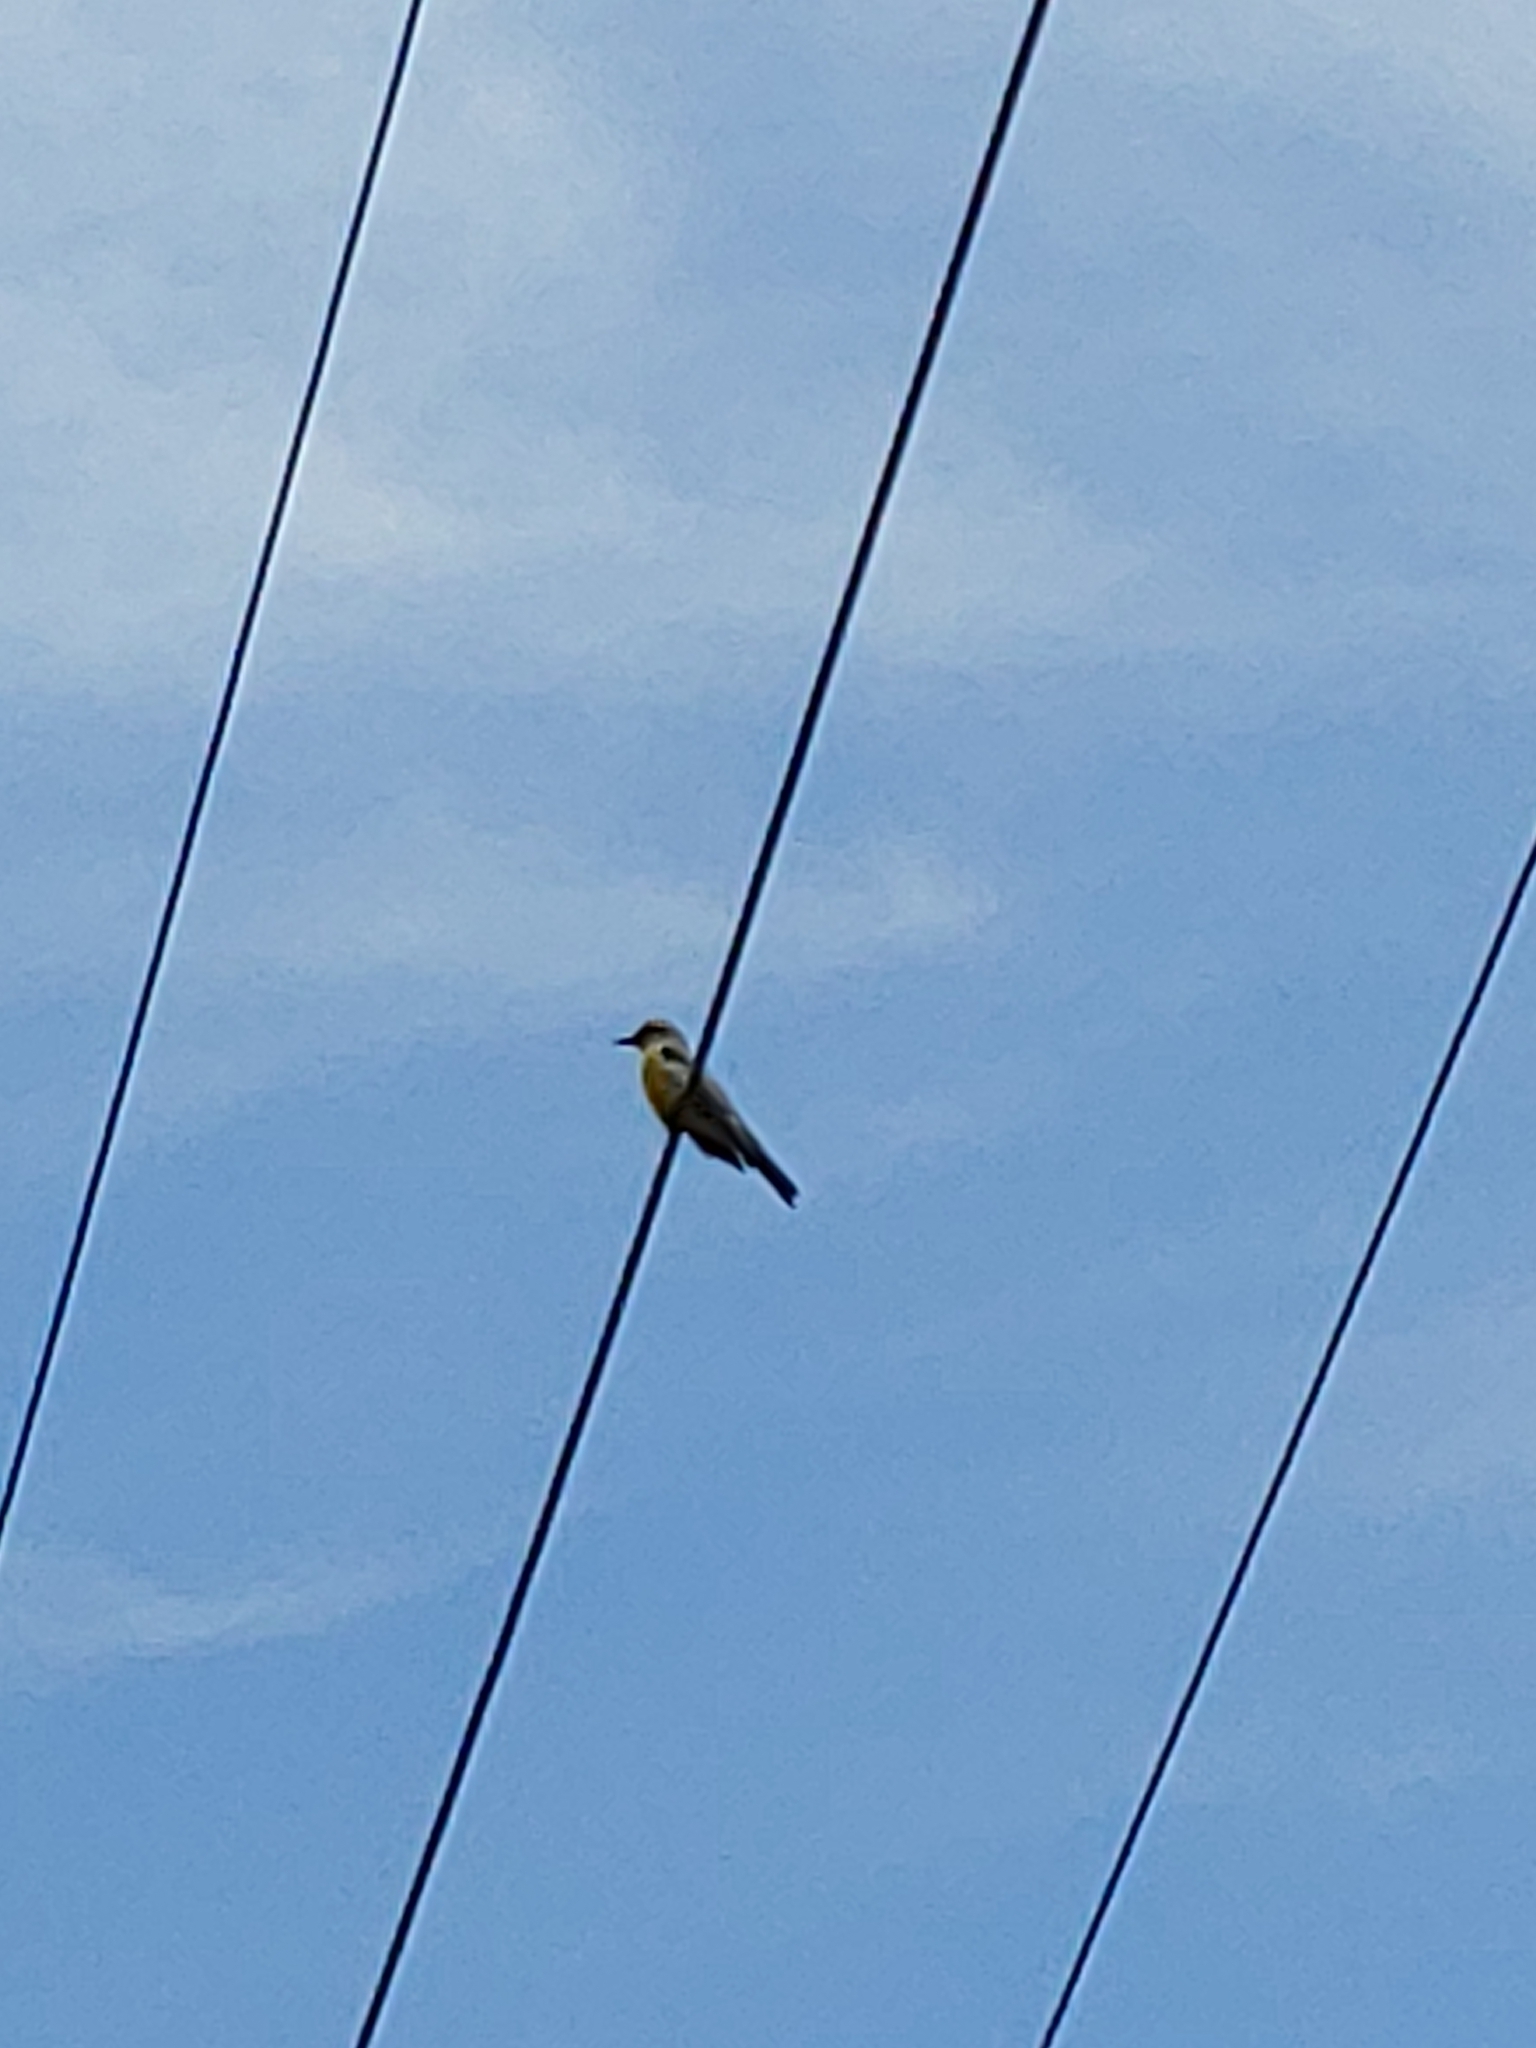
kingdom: Animalia
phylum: Chordata
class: Aves
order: Passeriformes
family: Tyrannidae
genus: Tyrannus
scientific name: Tyrannus melancholicus
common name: Tropical kingbird
